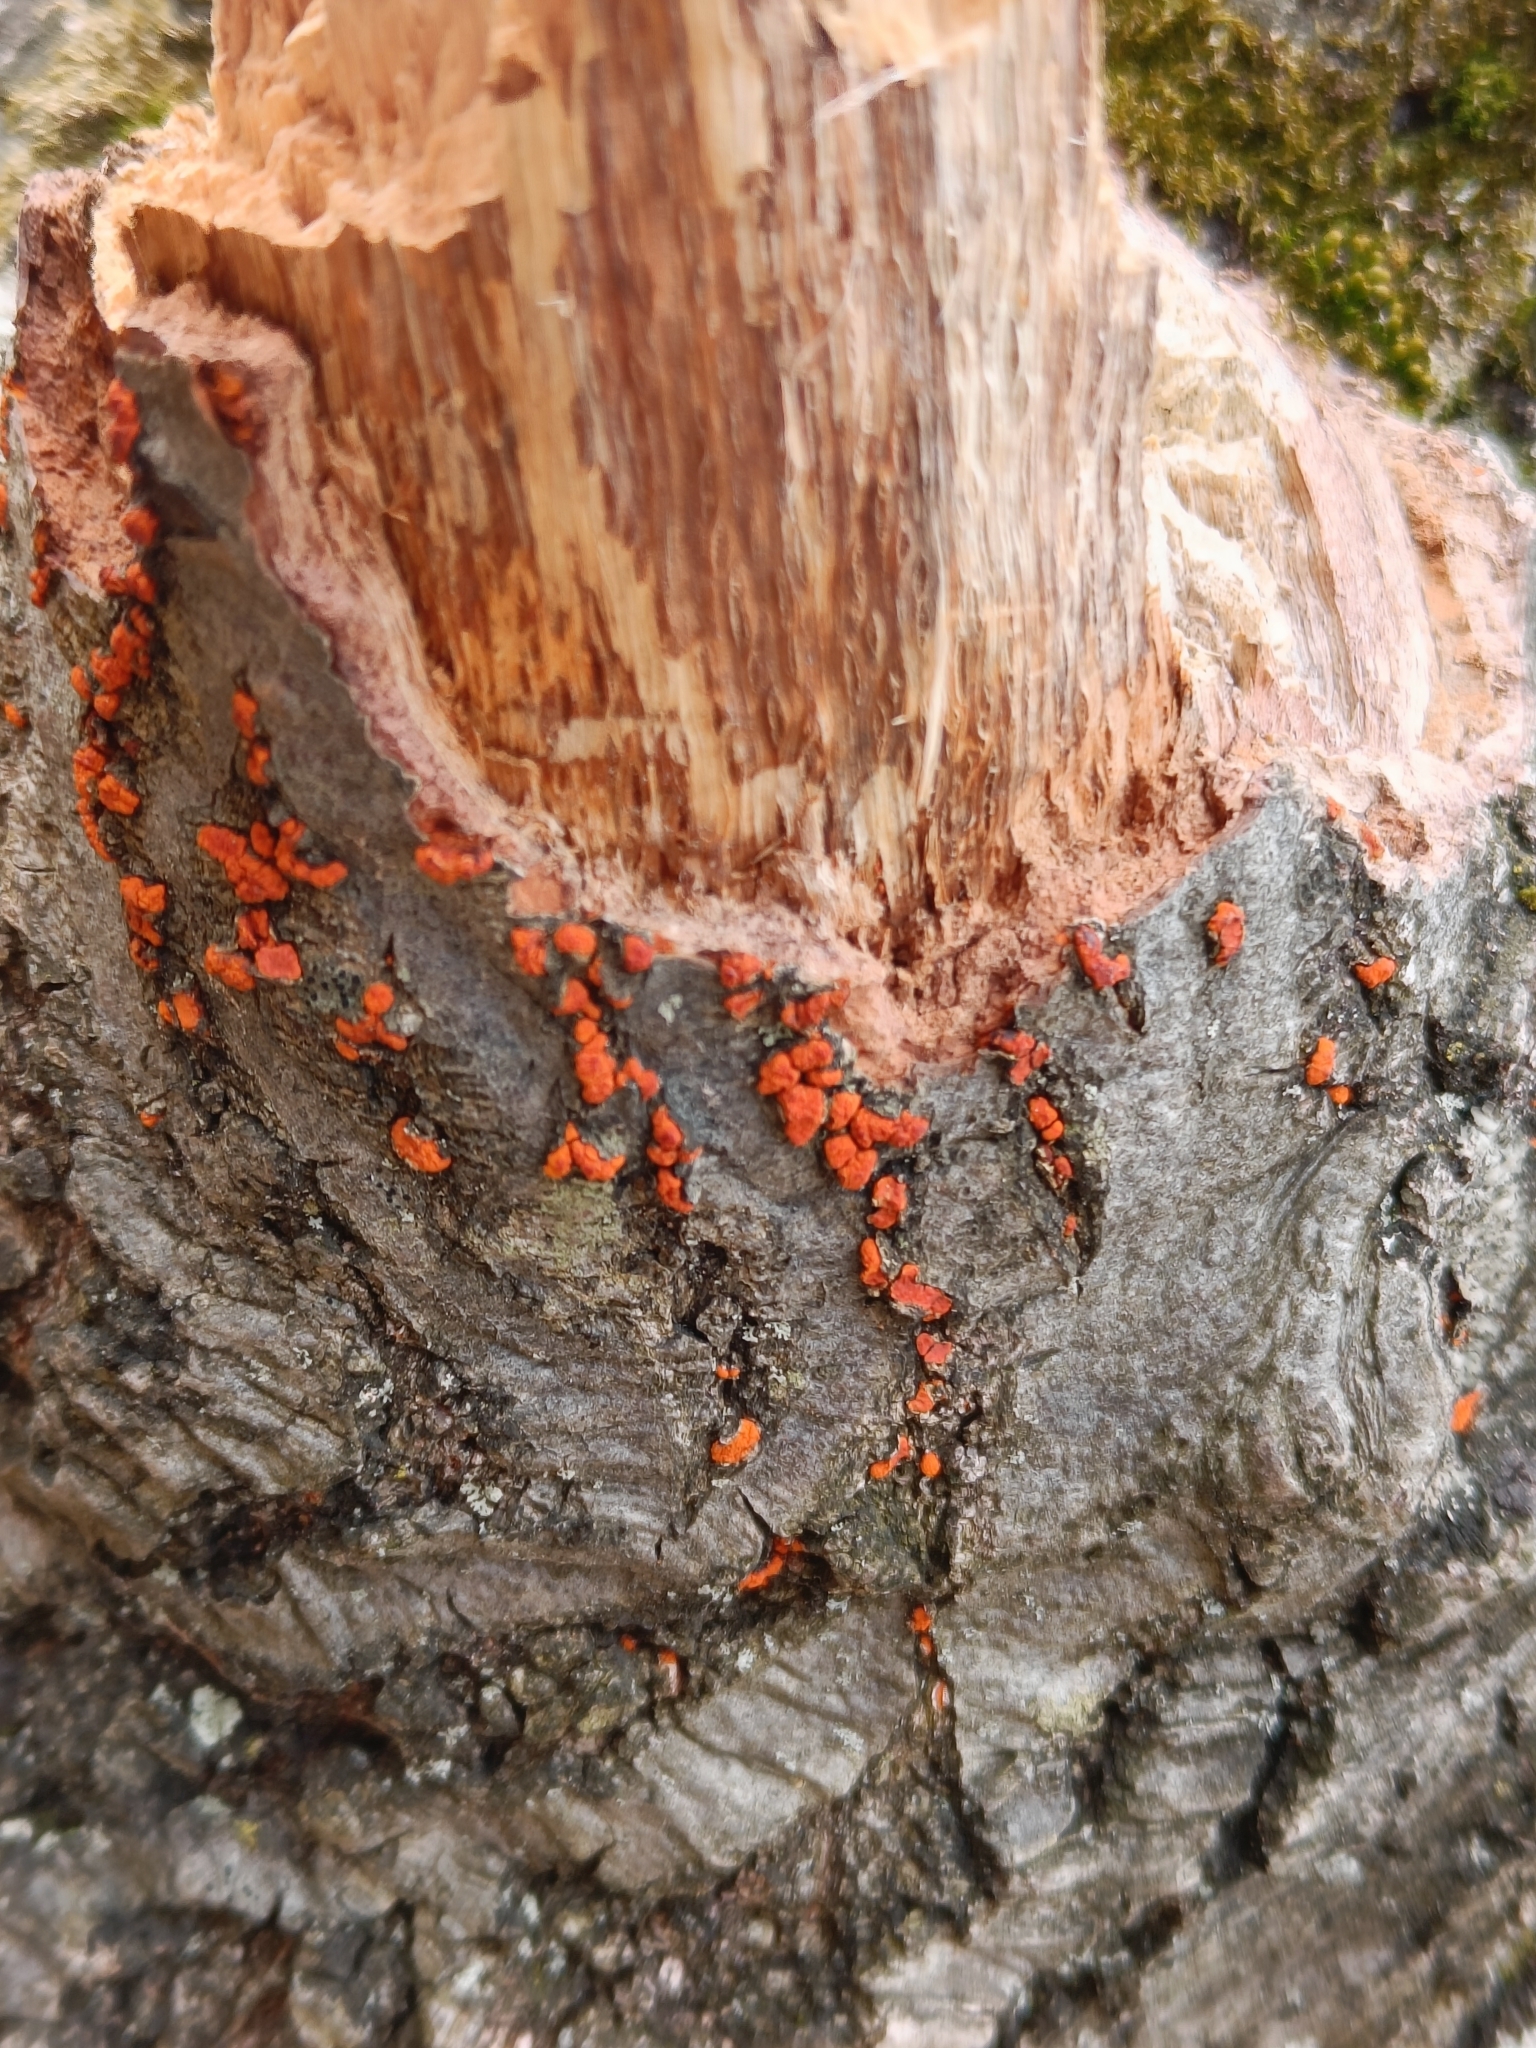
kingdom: Fungi
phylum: Ascomycota
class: Sordariomycetes
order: Diaporthales
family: Cryphonectriaceae
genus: Amphilogia
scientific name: Amphilogia gyrosa
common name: Orange hobnail canker
